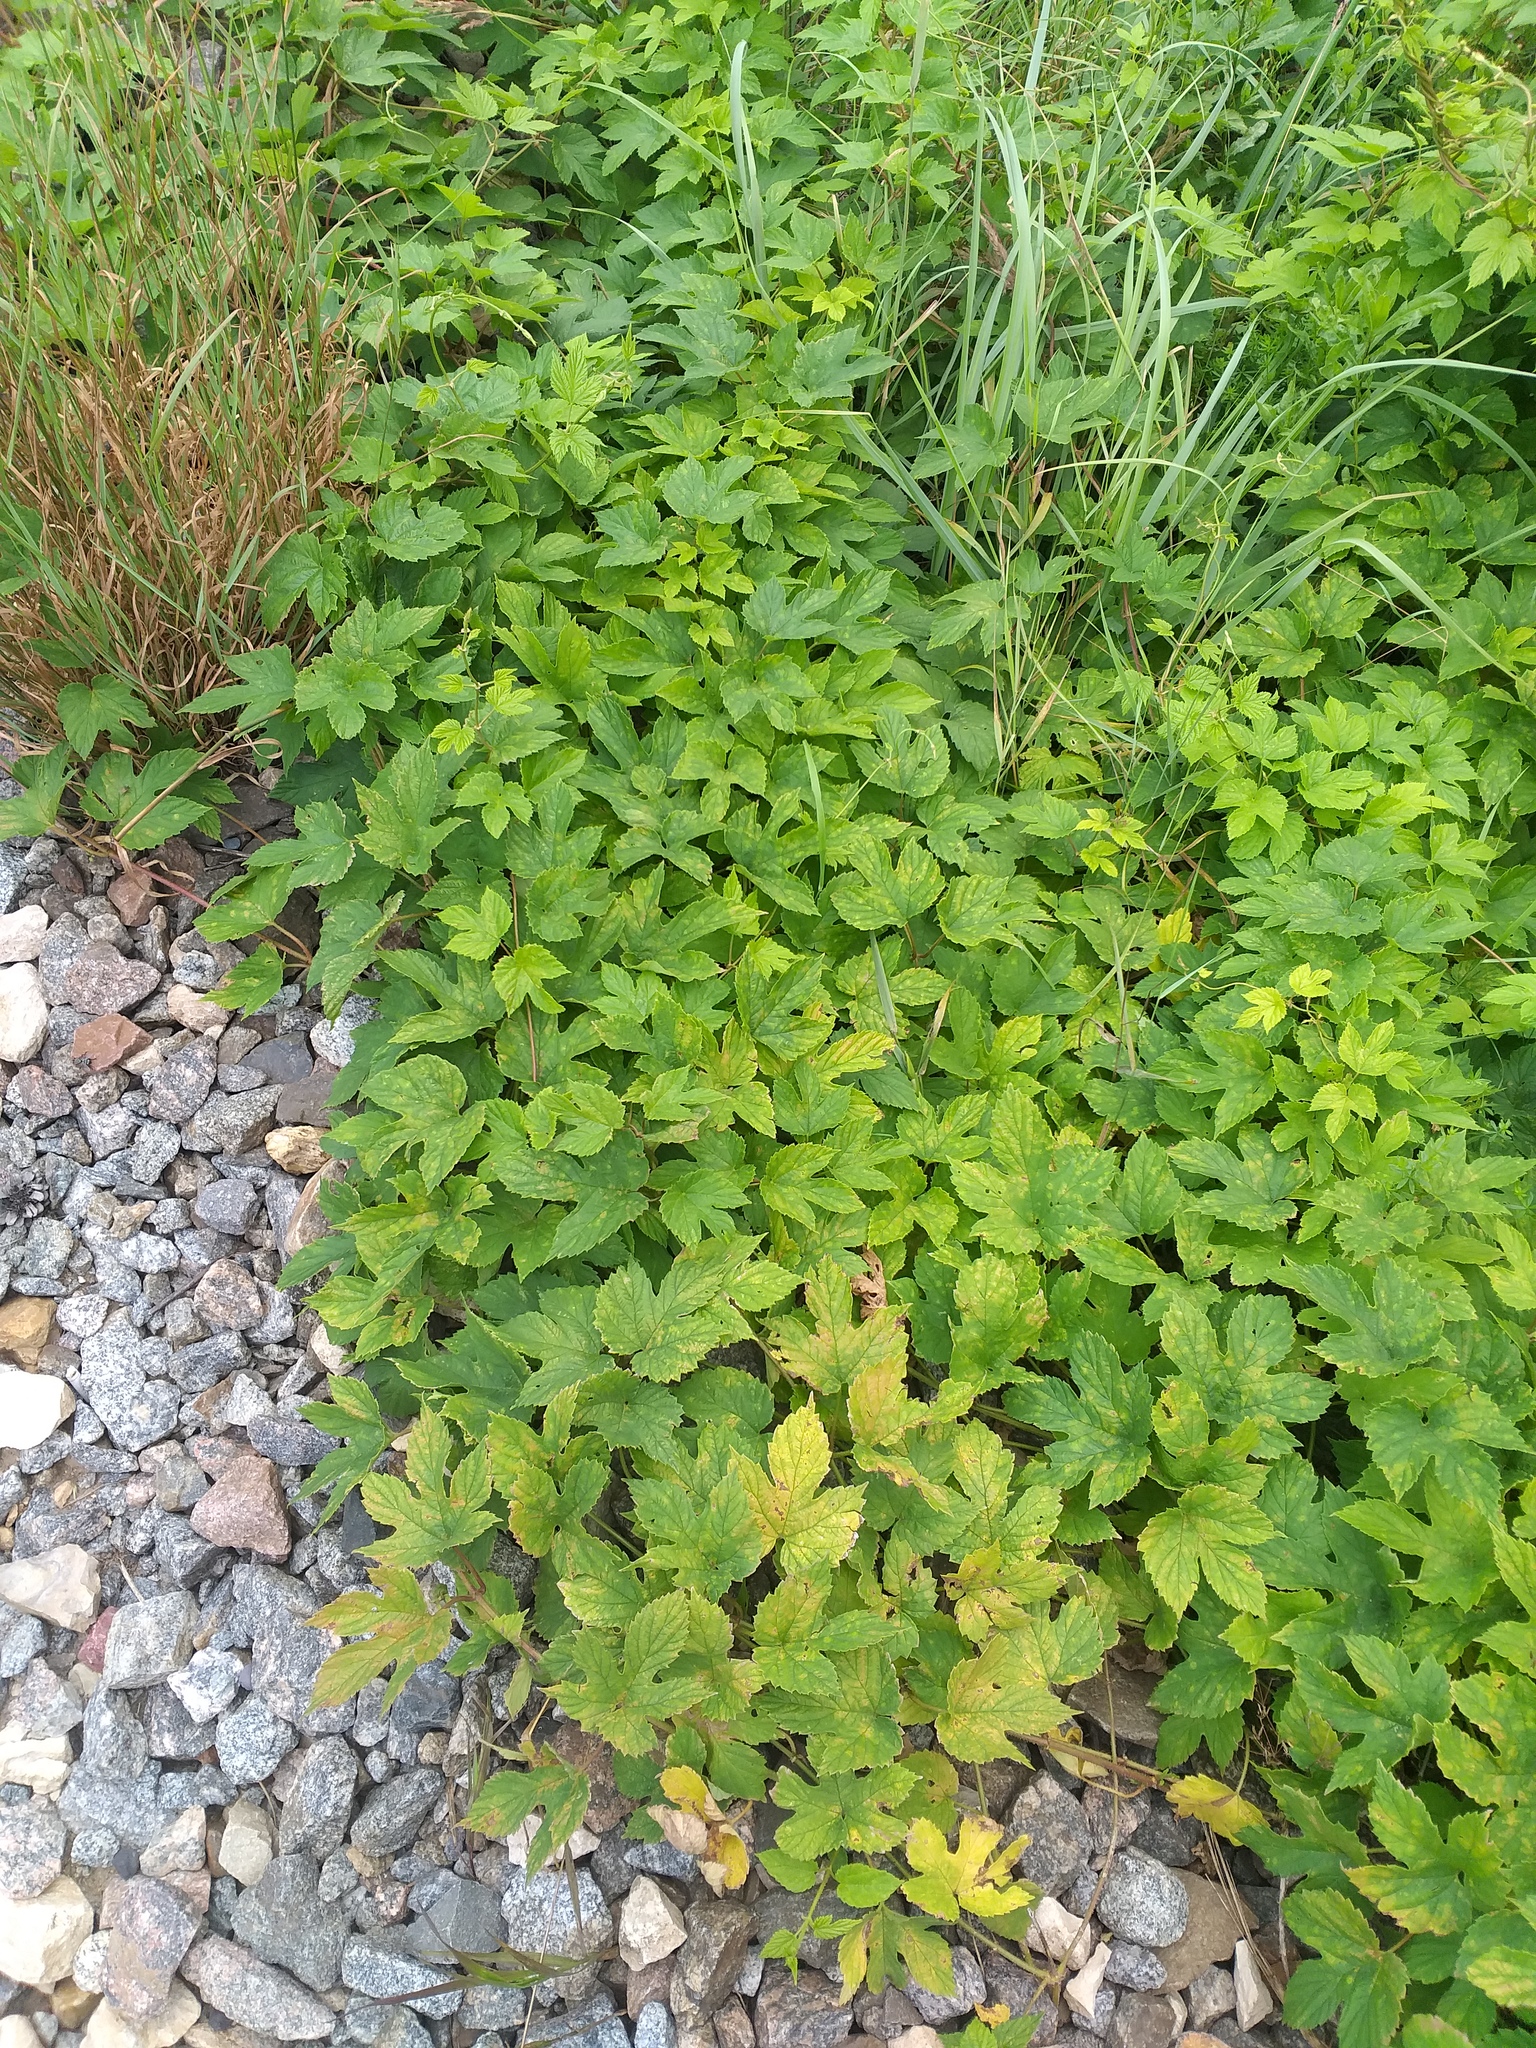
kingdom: Plantae
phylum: Tracheophyta
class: Magnoliopsida
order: Rosales
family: Cannabaceae
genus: Humulus
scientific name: Humulus lupulus
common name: Hop
